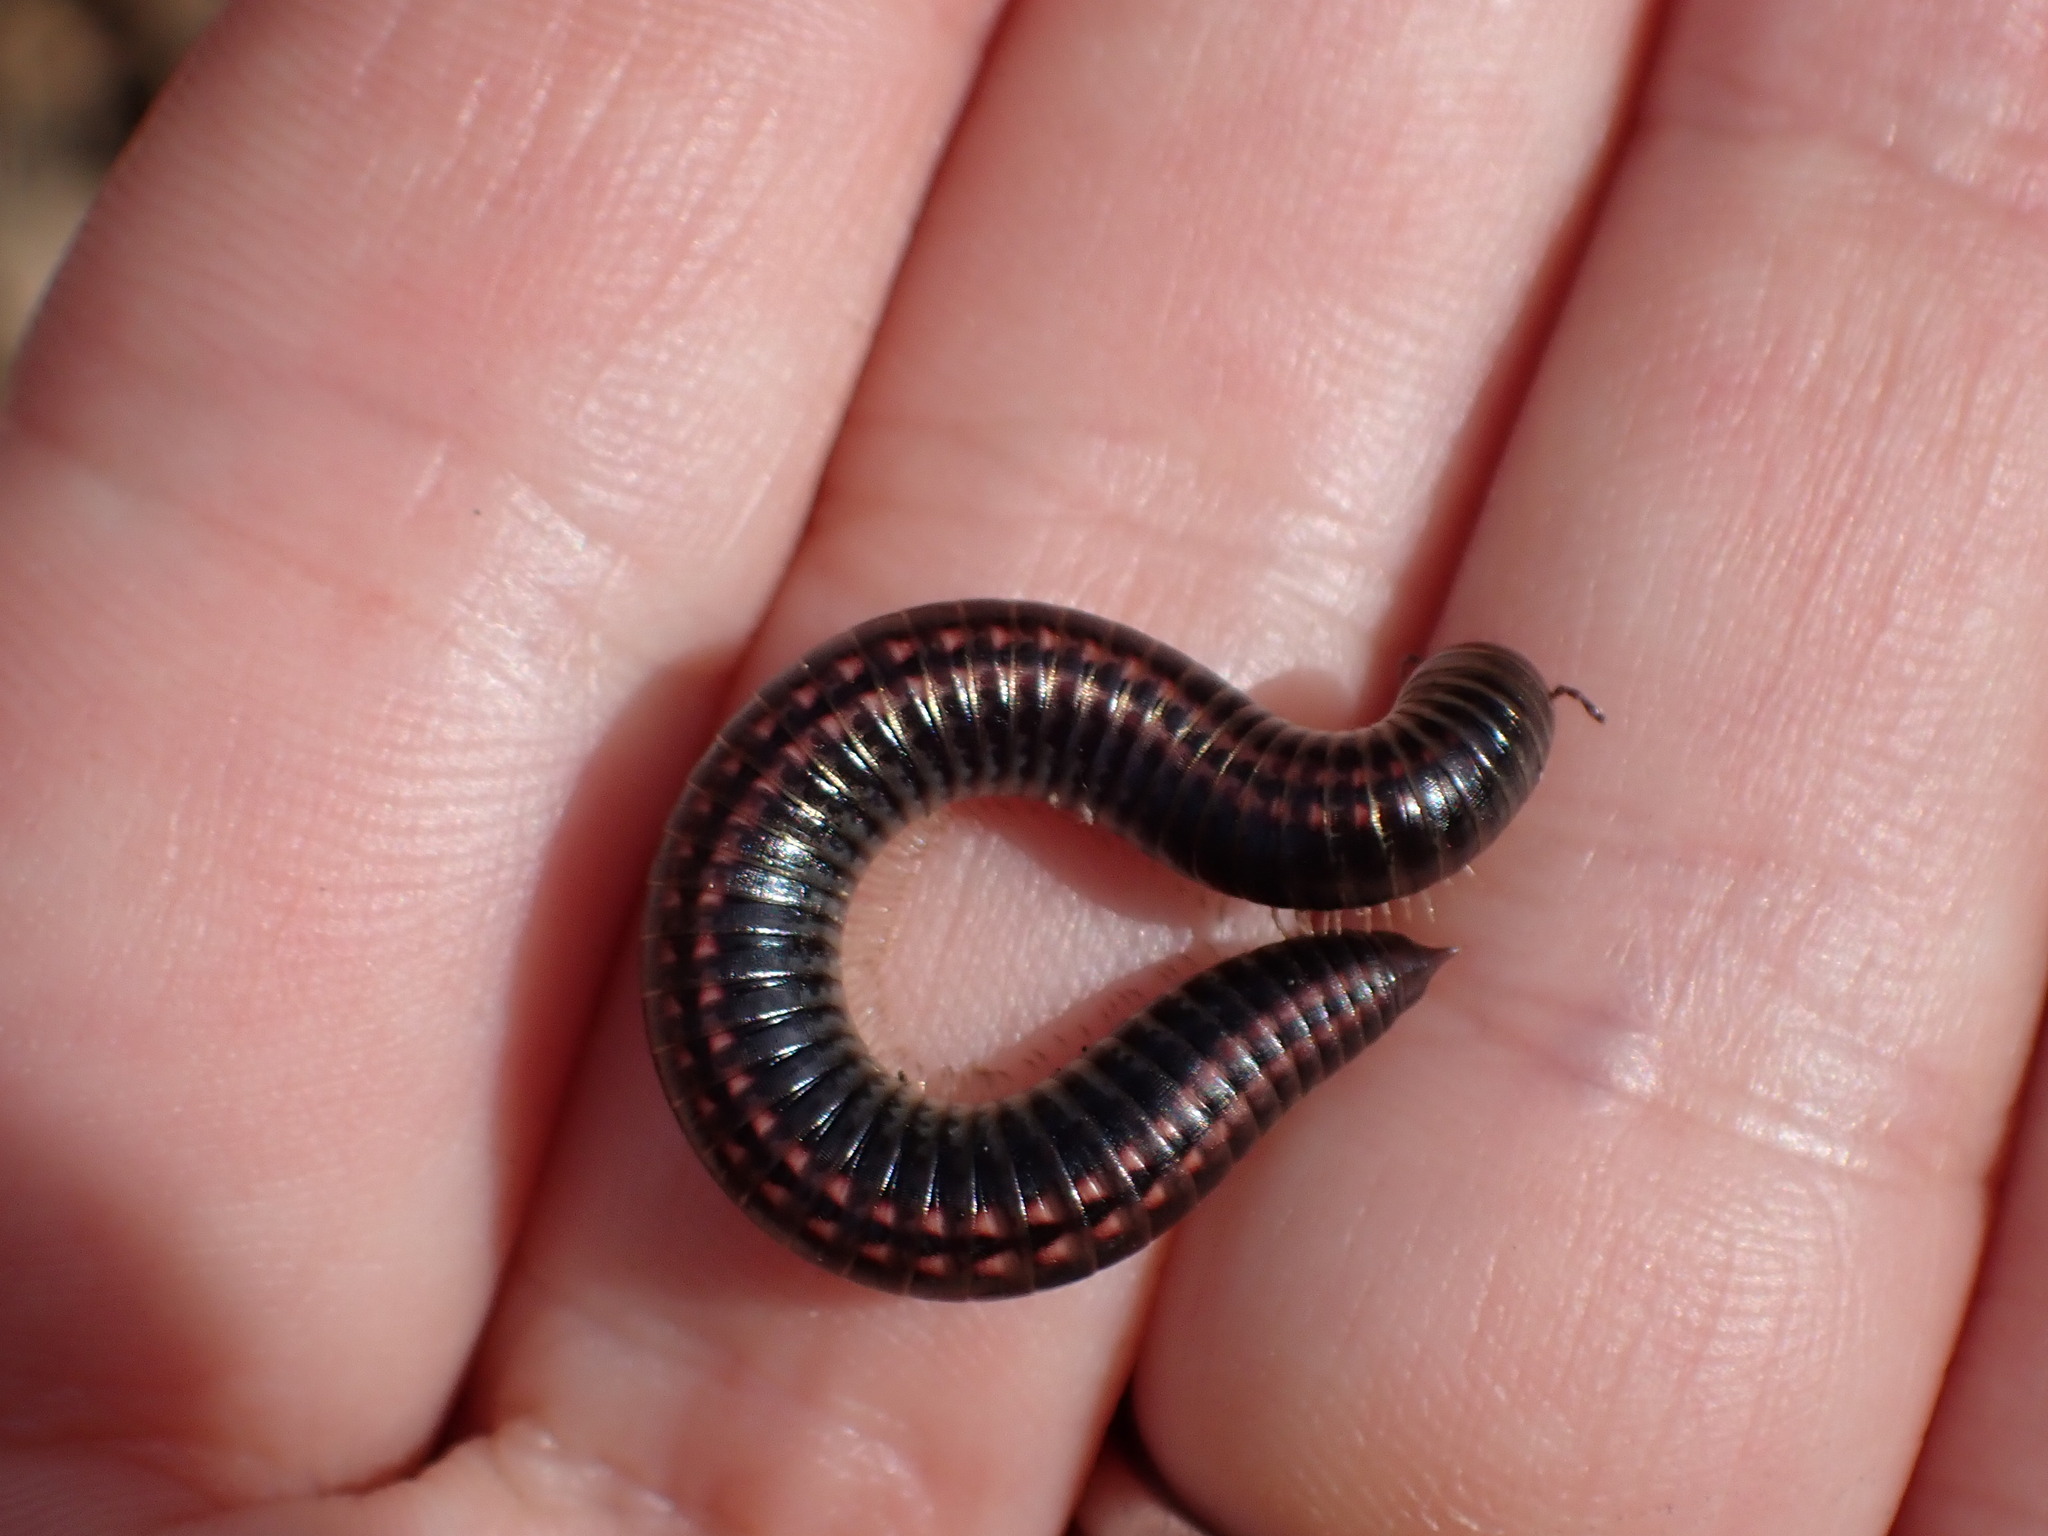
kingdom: Animalia
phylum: Arthropoda
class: Diplopoda
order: Julida
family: Julidae
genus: Ommatoiulus
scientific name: Ommatoiulus sabulosus
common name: Striped millipede
